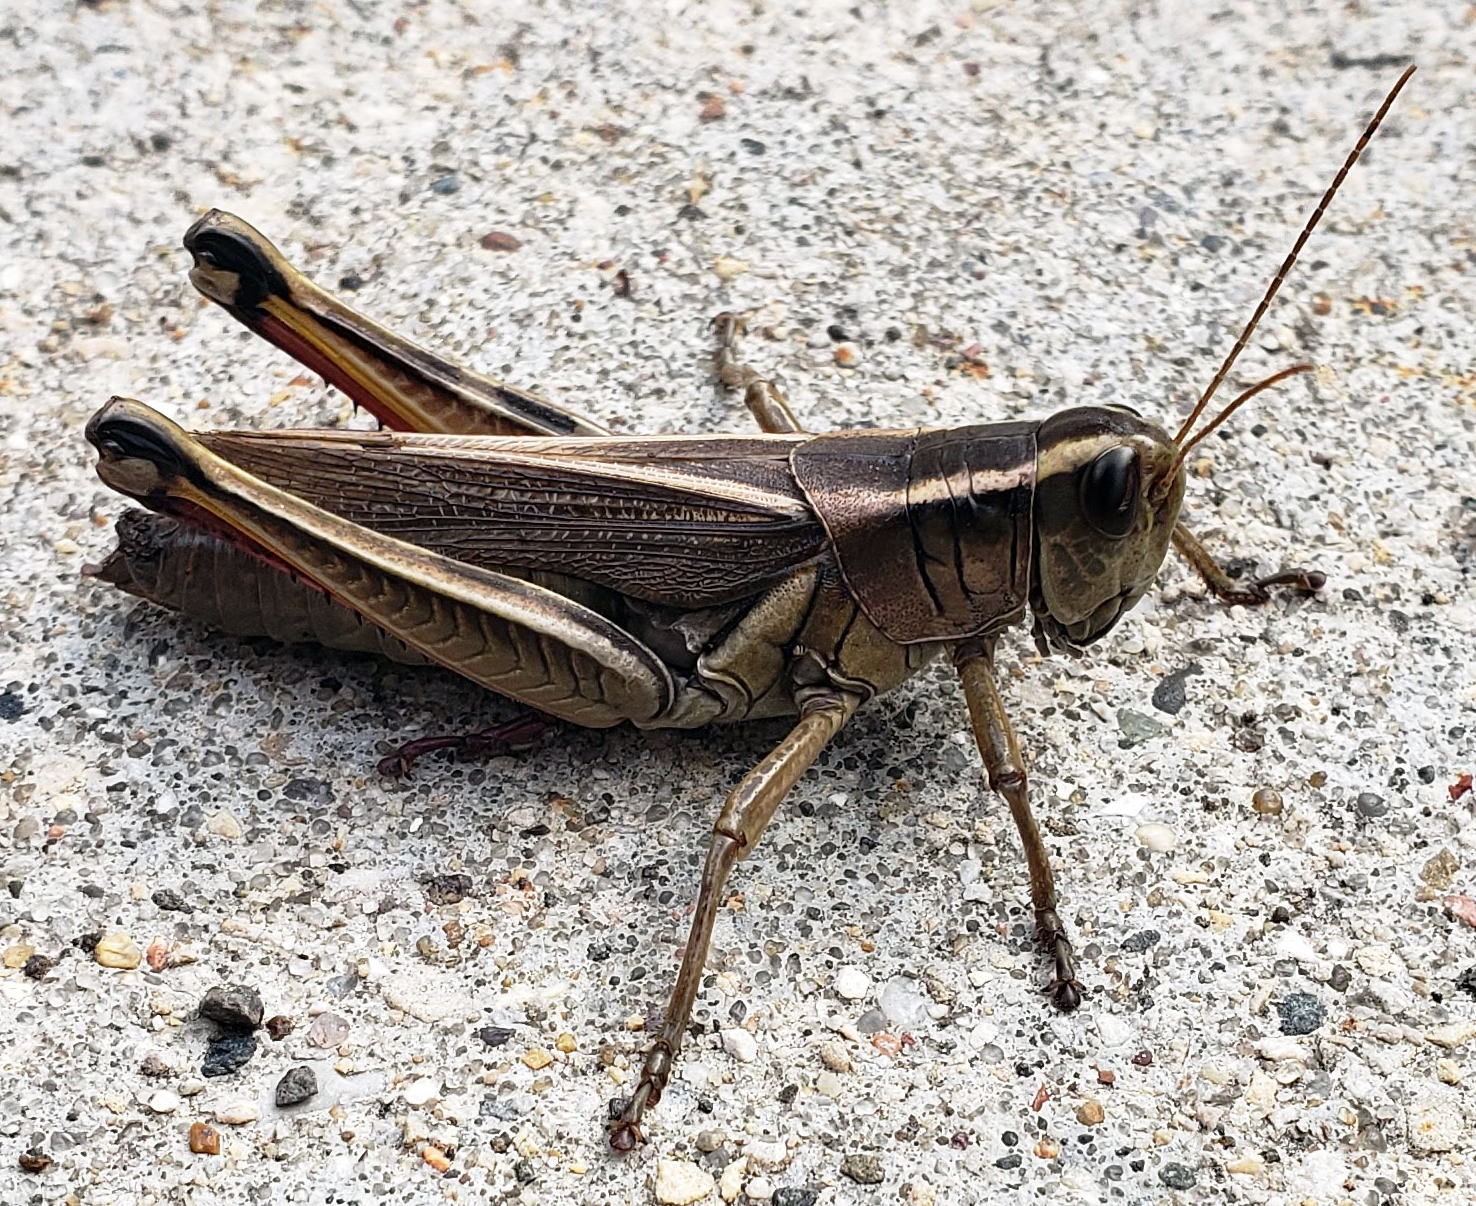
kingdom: Animalia
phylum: Arthropoda
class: Insecta
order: Orthoptera
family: Acrididae
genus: Melanoplus
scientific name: Melanoplus bivittatus
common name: Two-striped grasshopper
